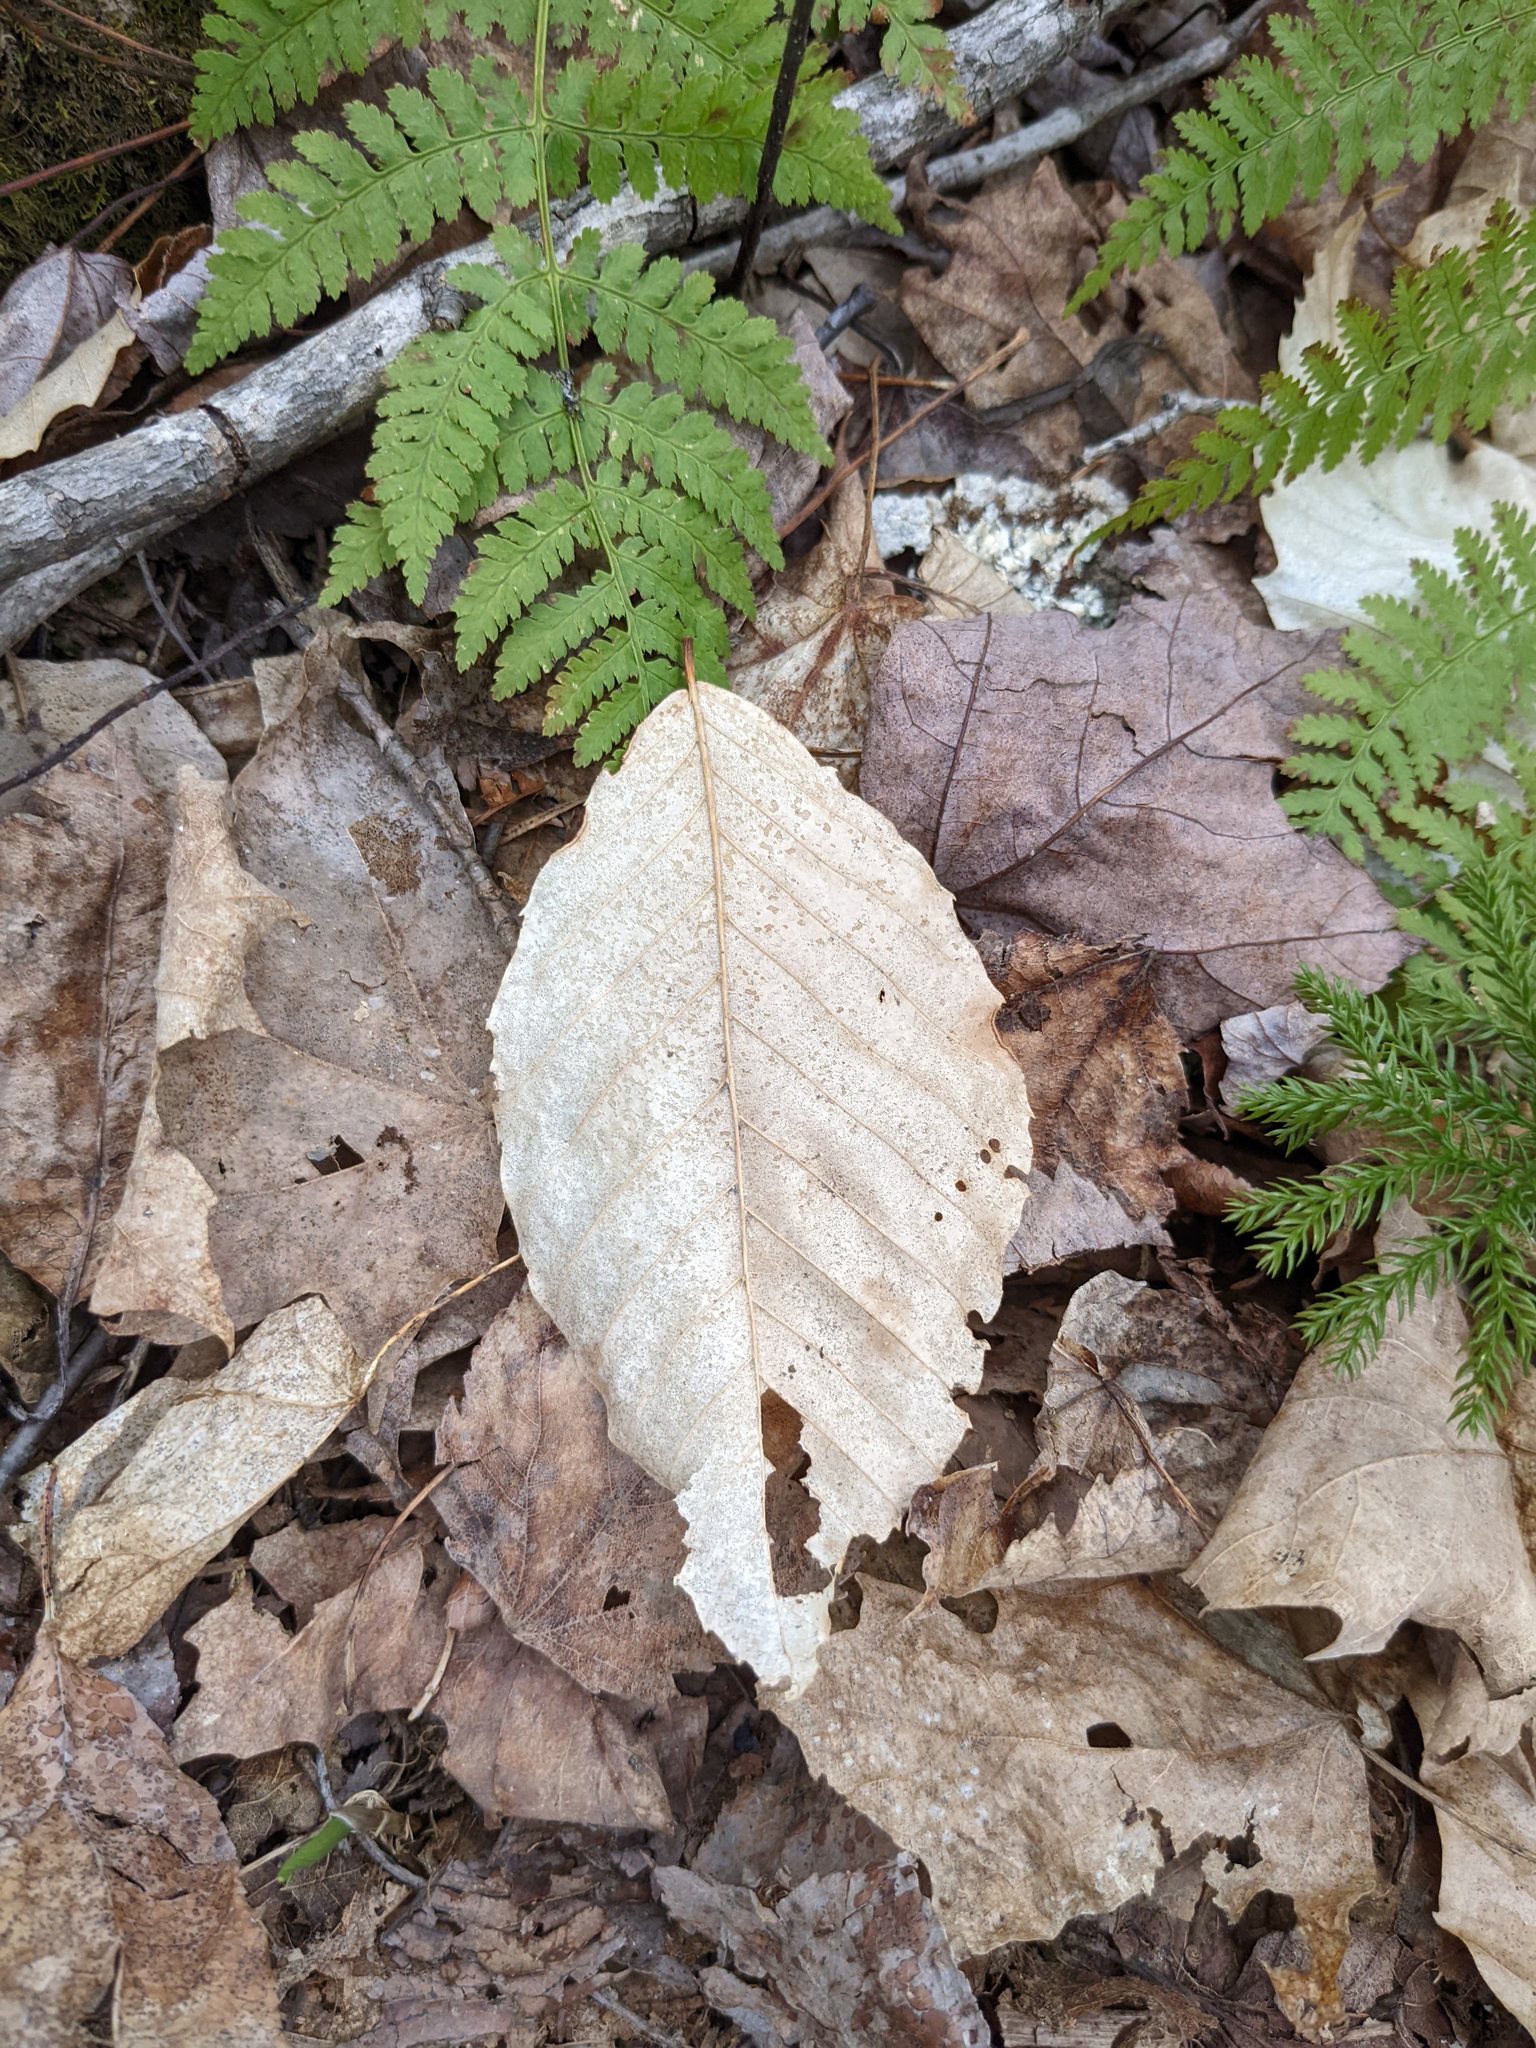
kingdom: Plantae
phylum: Tracheophyta
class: Magnoliopsida
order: Fagales
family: Fagaceae
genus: Fagus
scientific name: Fagus grandifolia
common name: American beech
